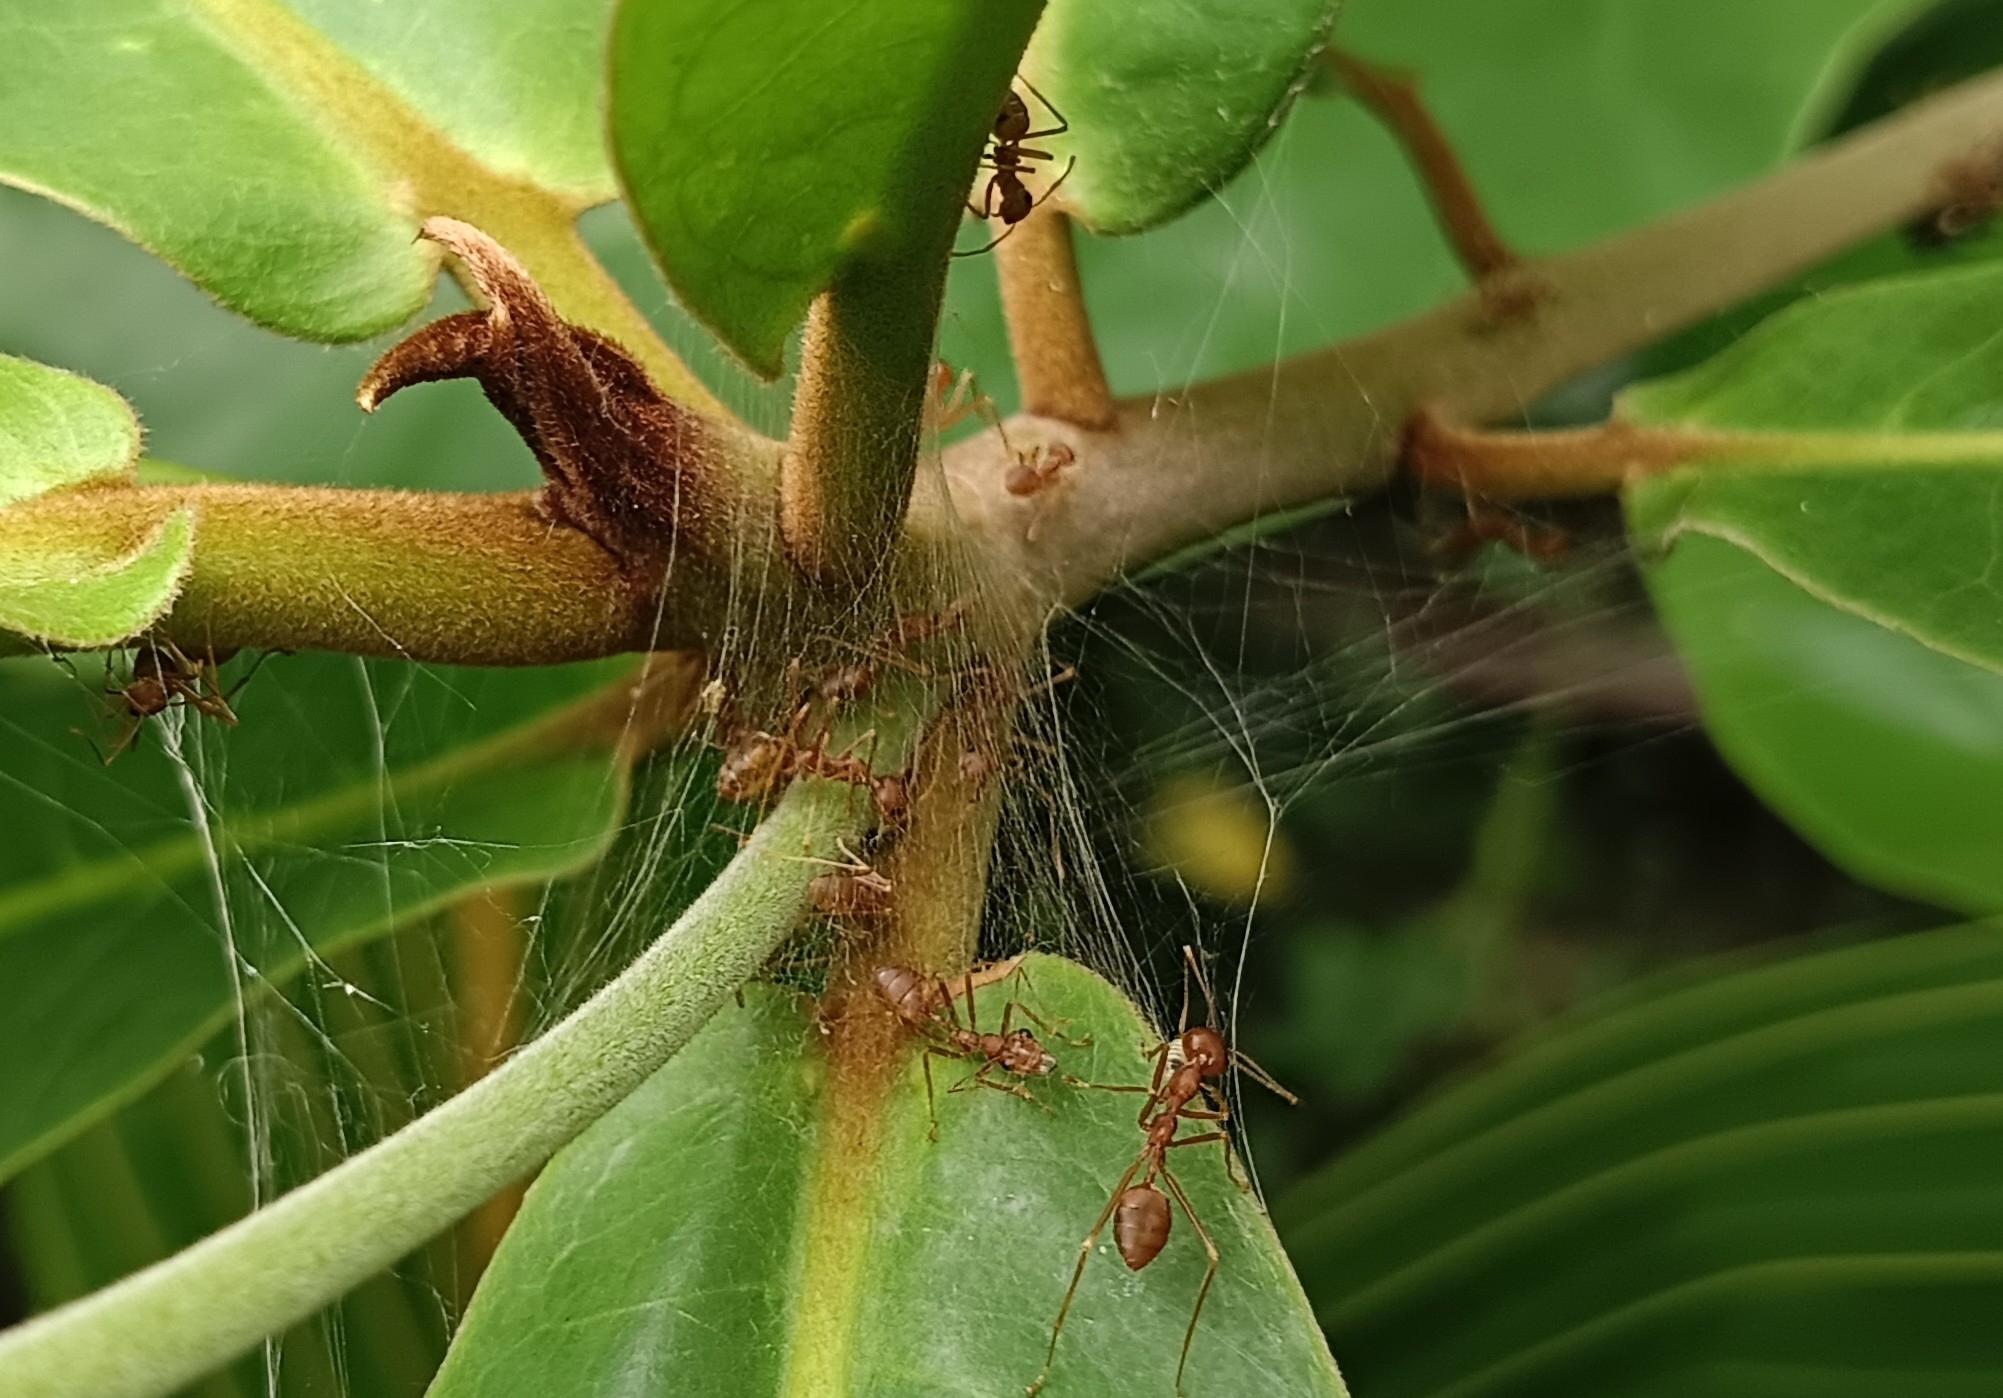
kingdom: Animalia
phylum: Arthropoda
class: Insecta
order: Hymenoptera
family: Formicidae
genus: Oecophylla
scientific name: Oecophylla smaragdina
